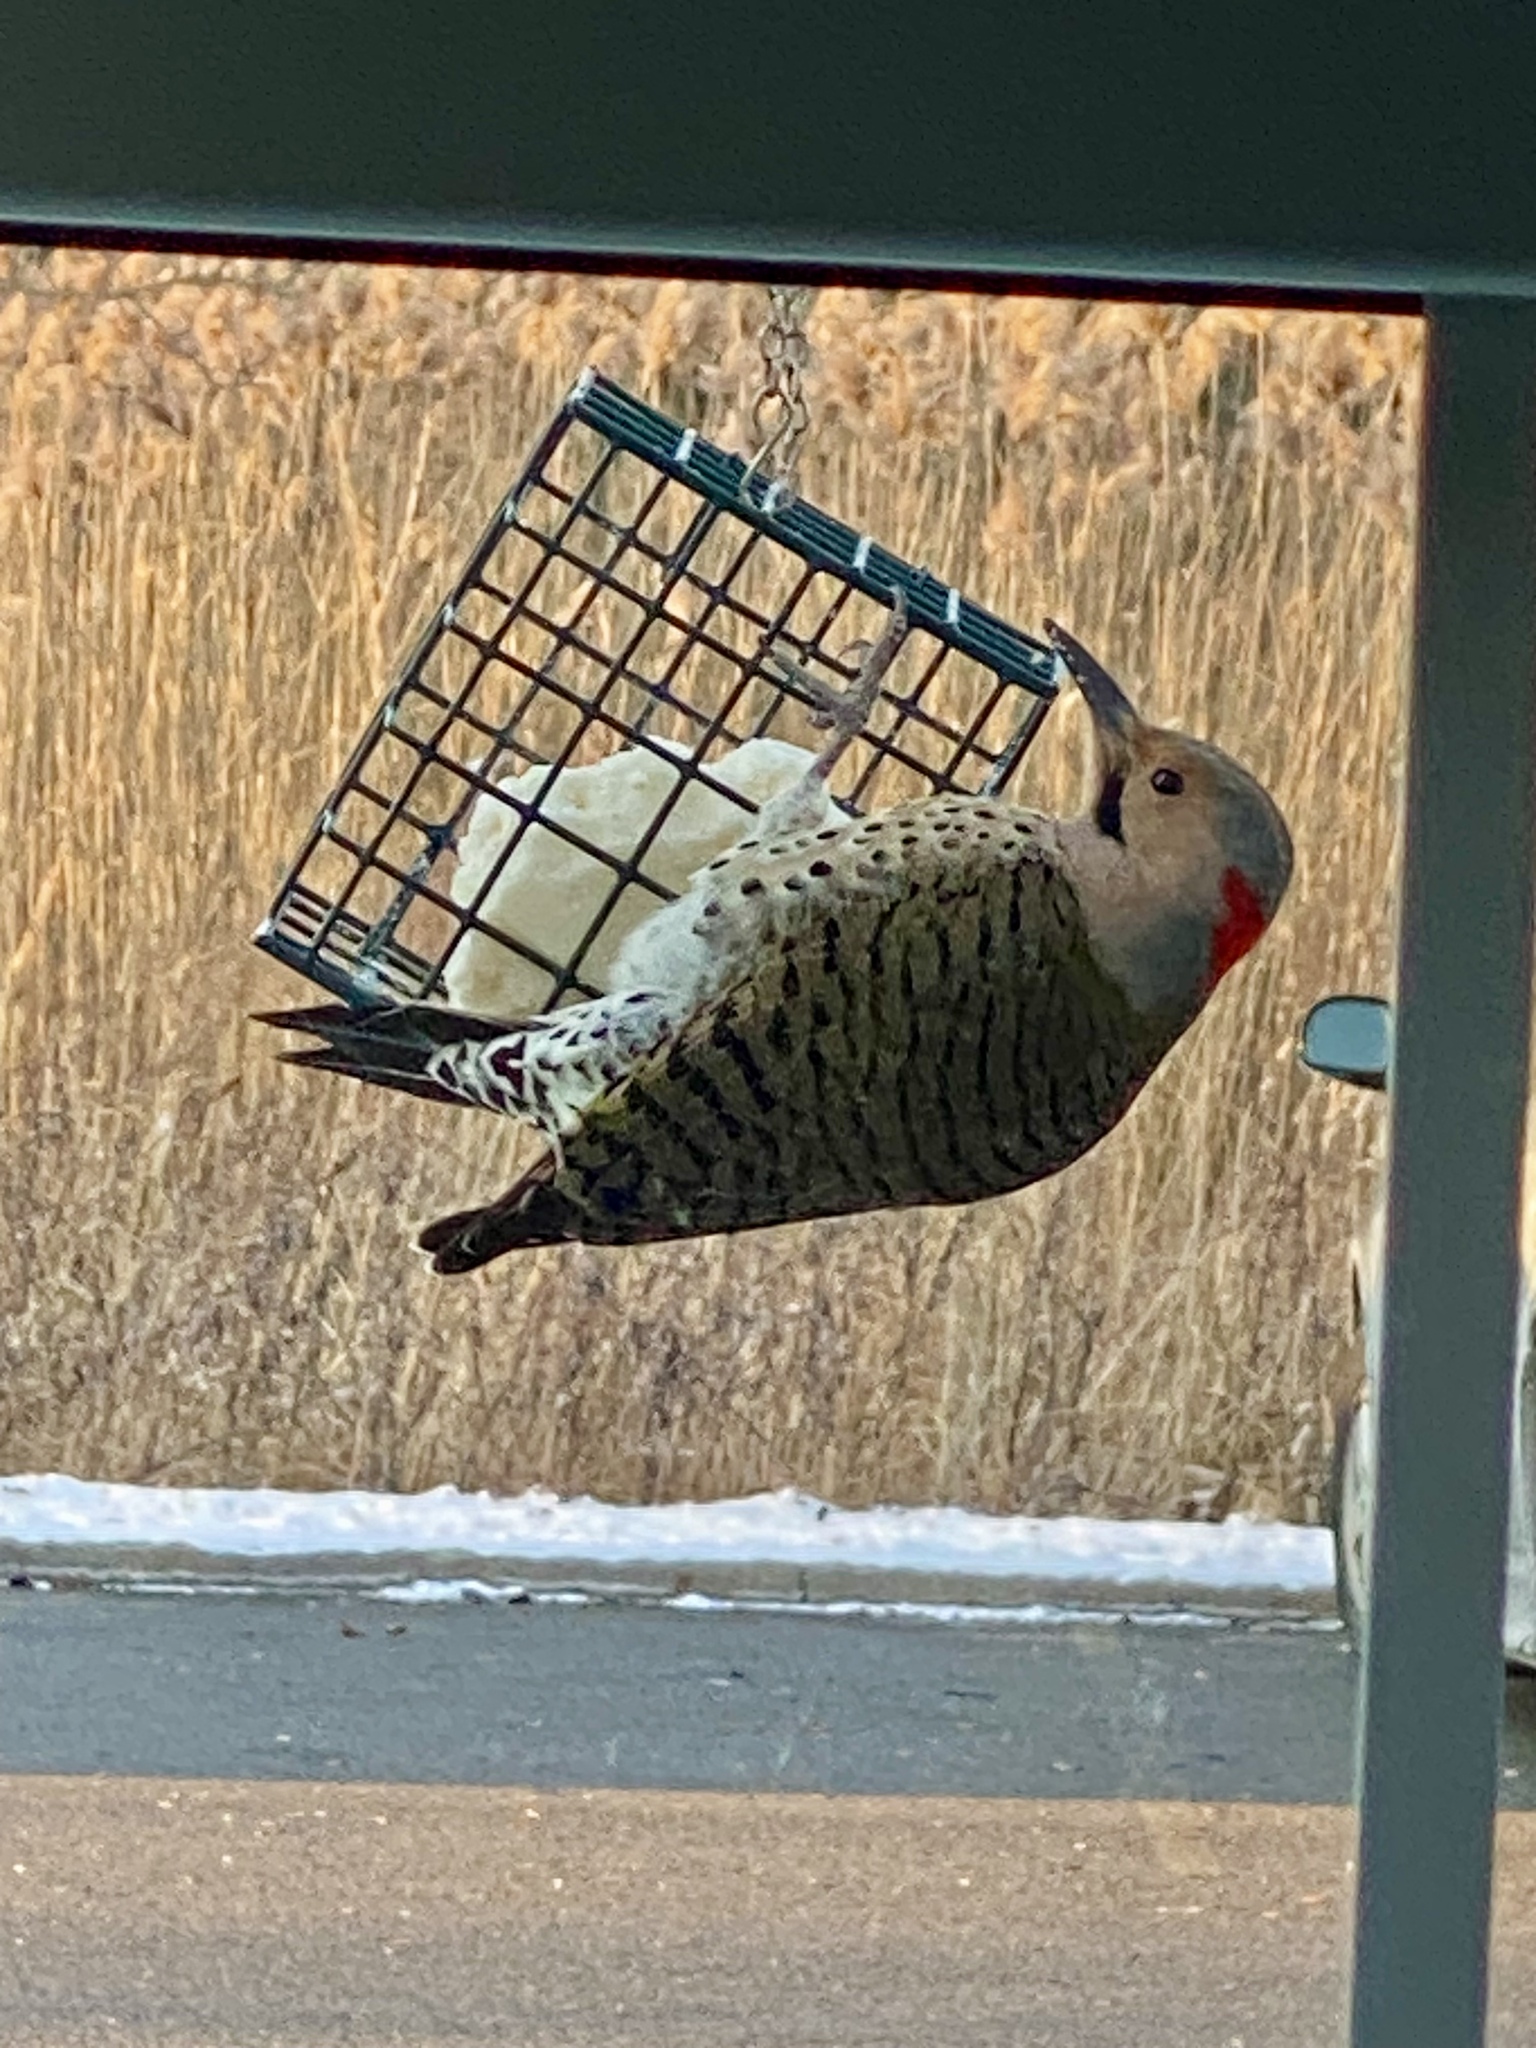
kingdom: Animalia
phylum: Chordata
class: Aves
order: Piciformes
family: Picidae
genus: Colaptes
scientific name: Colaptes auratus
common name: Northern flicker
